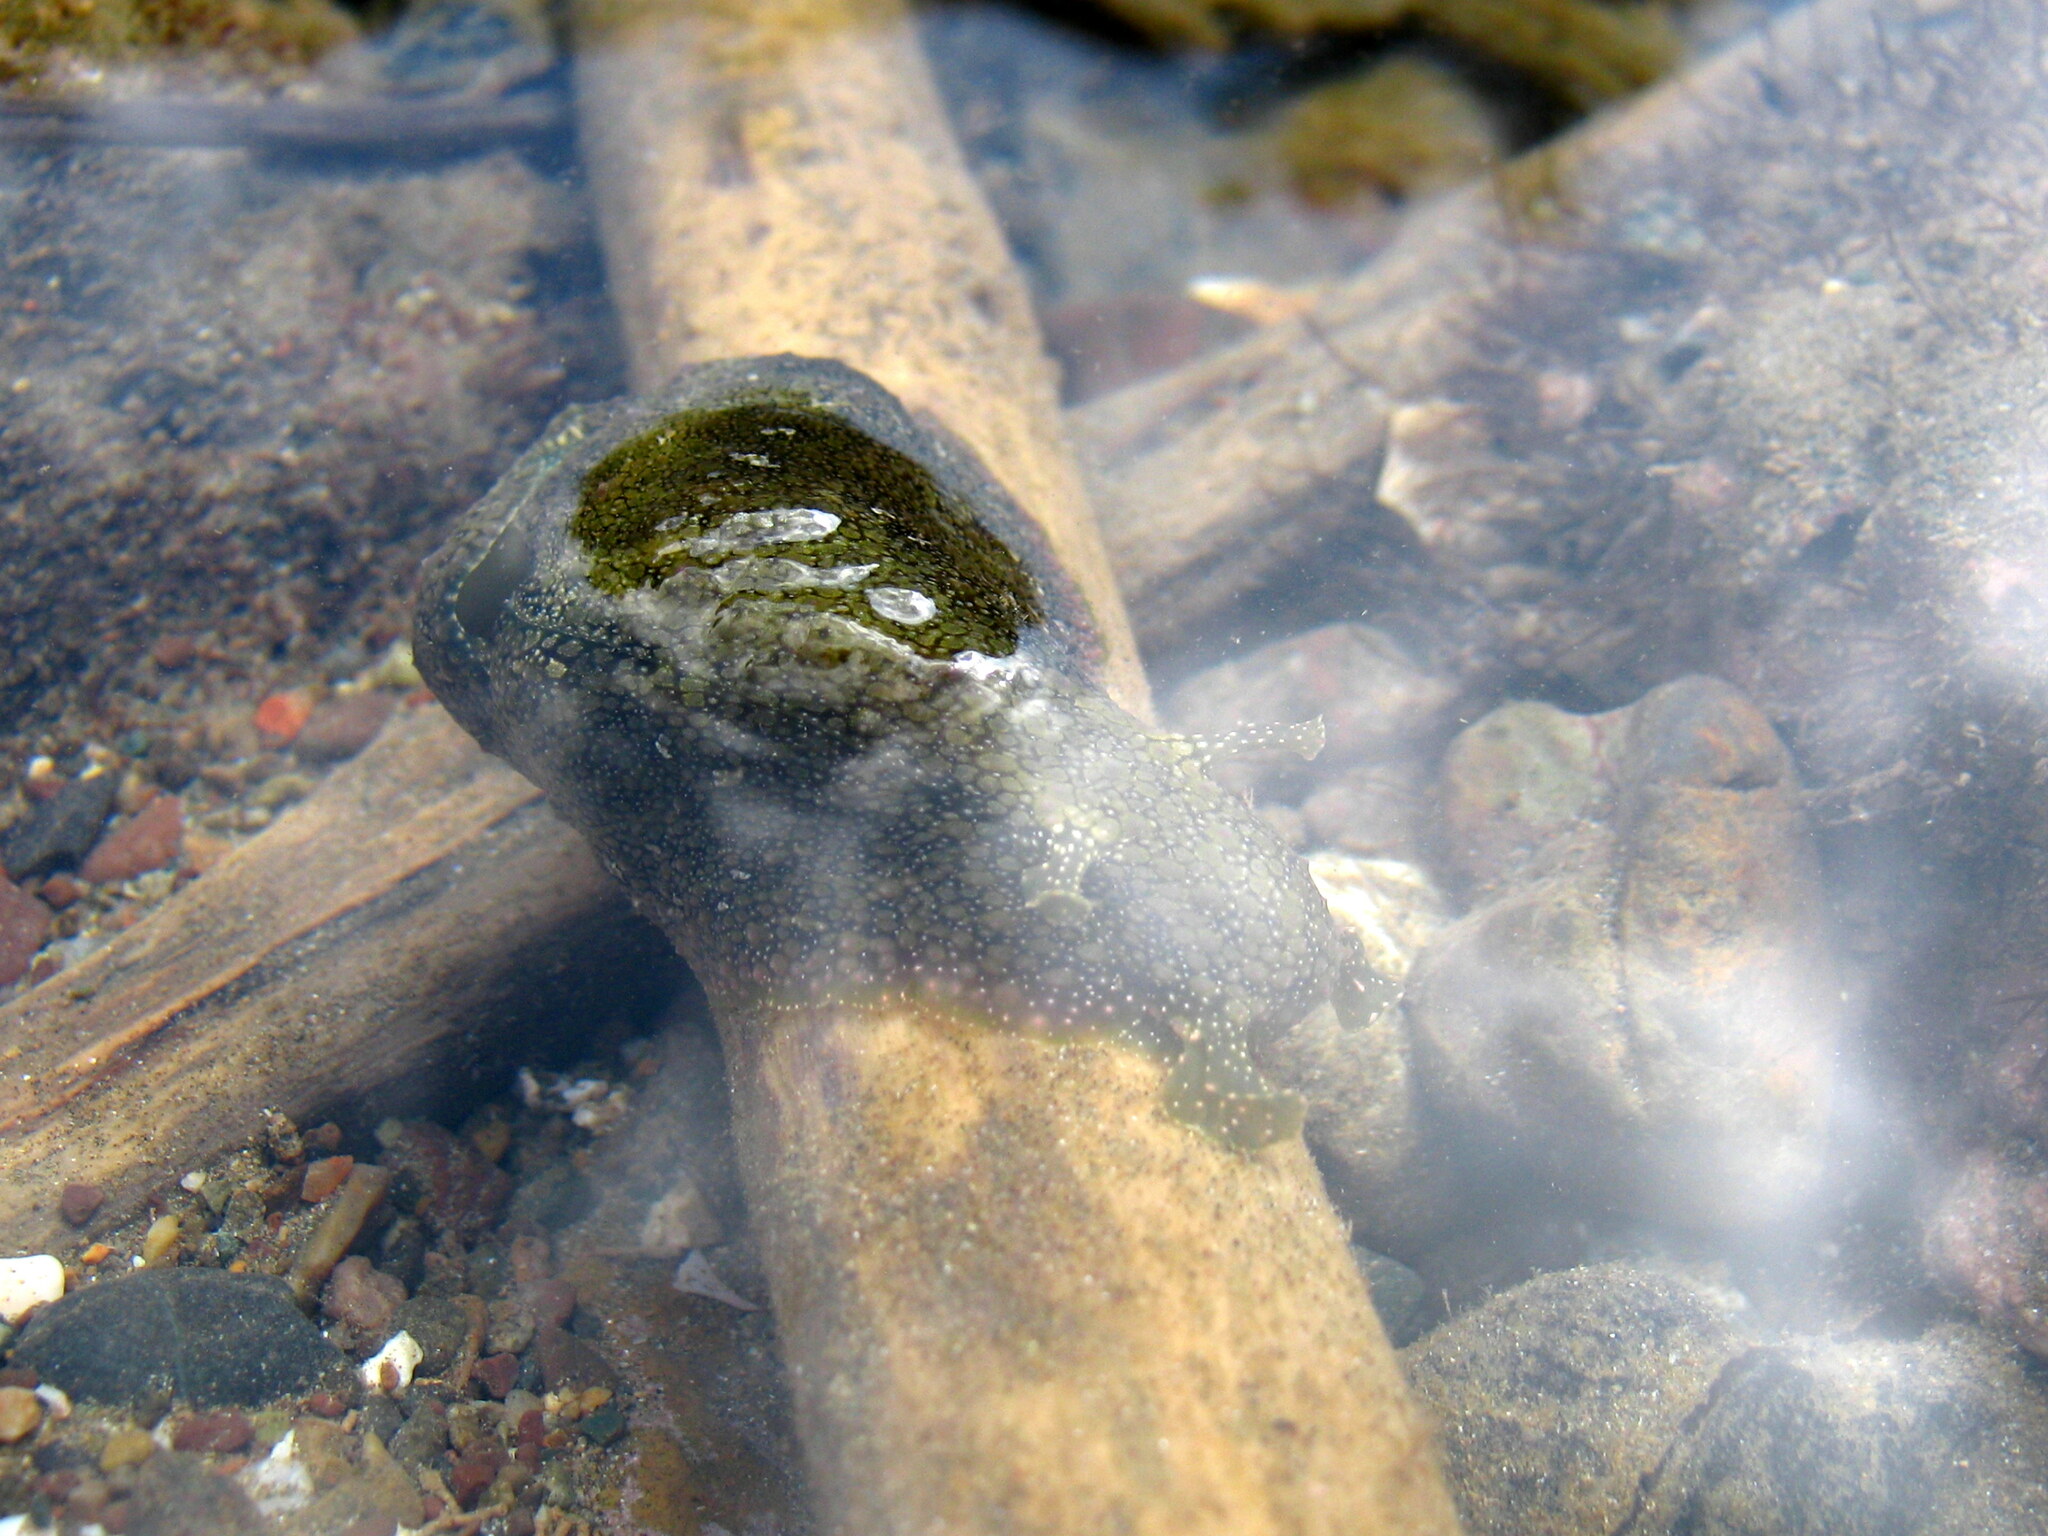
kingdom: Animalia
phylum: Mollusca
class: Gastropoda
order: Aplysiida
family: Aplysiidae
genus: Dolabrifera
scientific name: Dolabrifera nicaraguana
